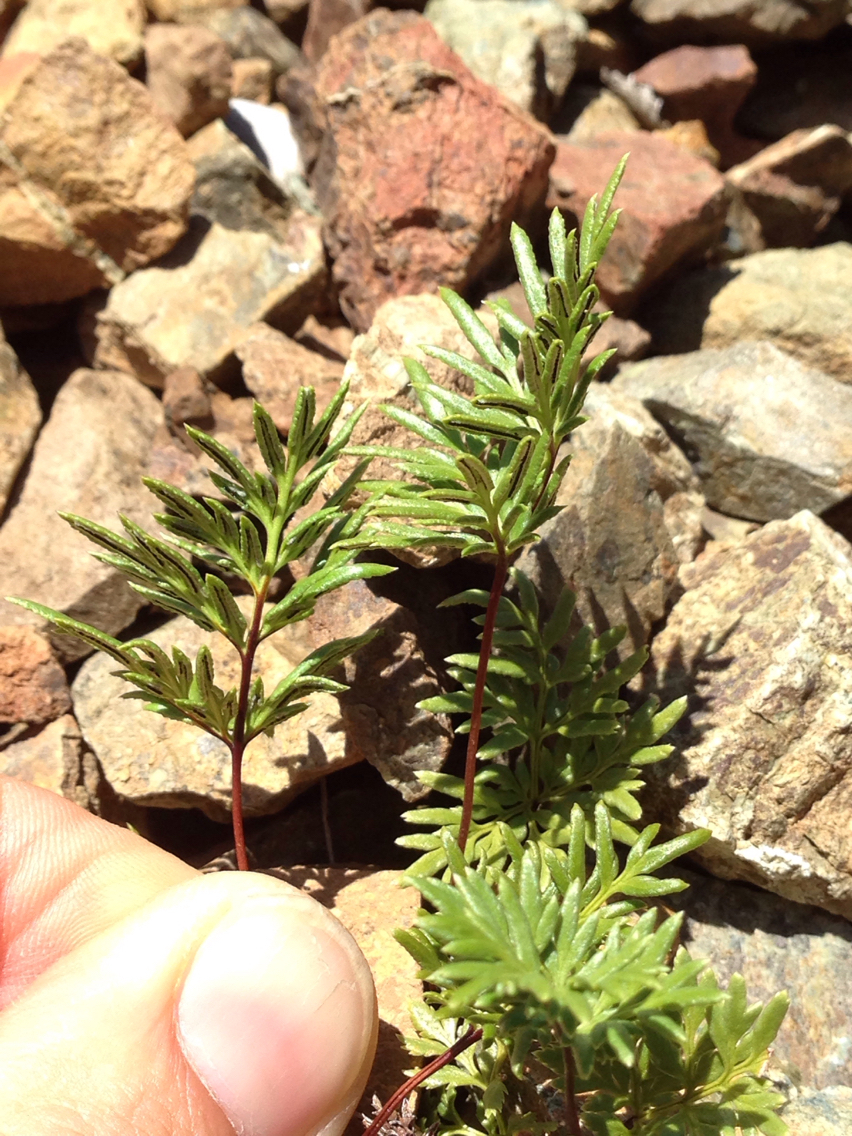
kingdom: Plantae
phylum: Tracheophyta
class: Polypodiopsida
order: Polypodiales
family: Pteridaceae
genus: Aspidotis
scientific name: Aspidotis densa
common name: Indian's dream
